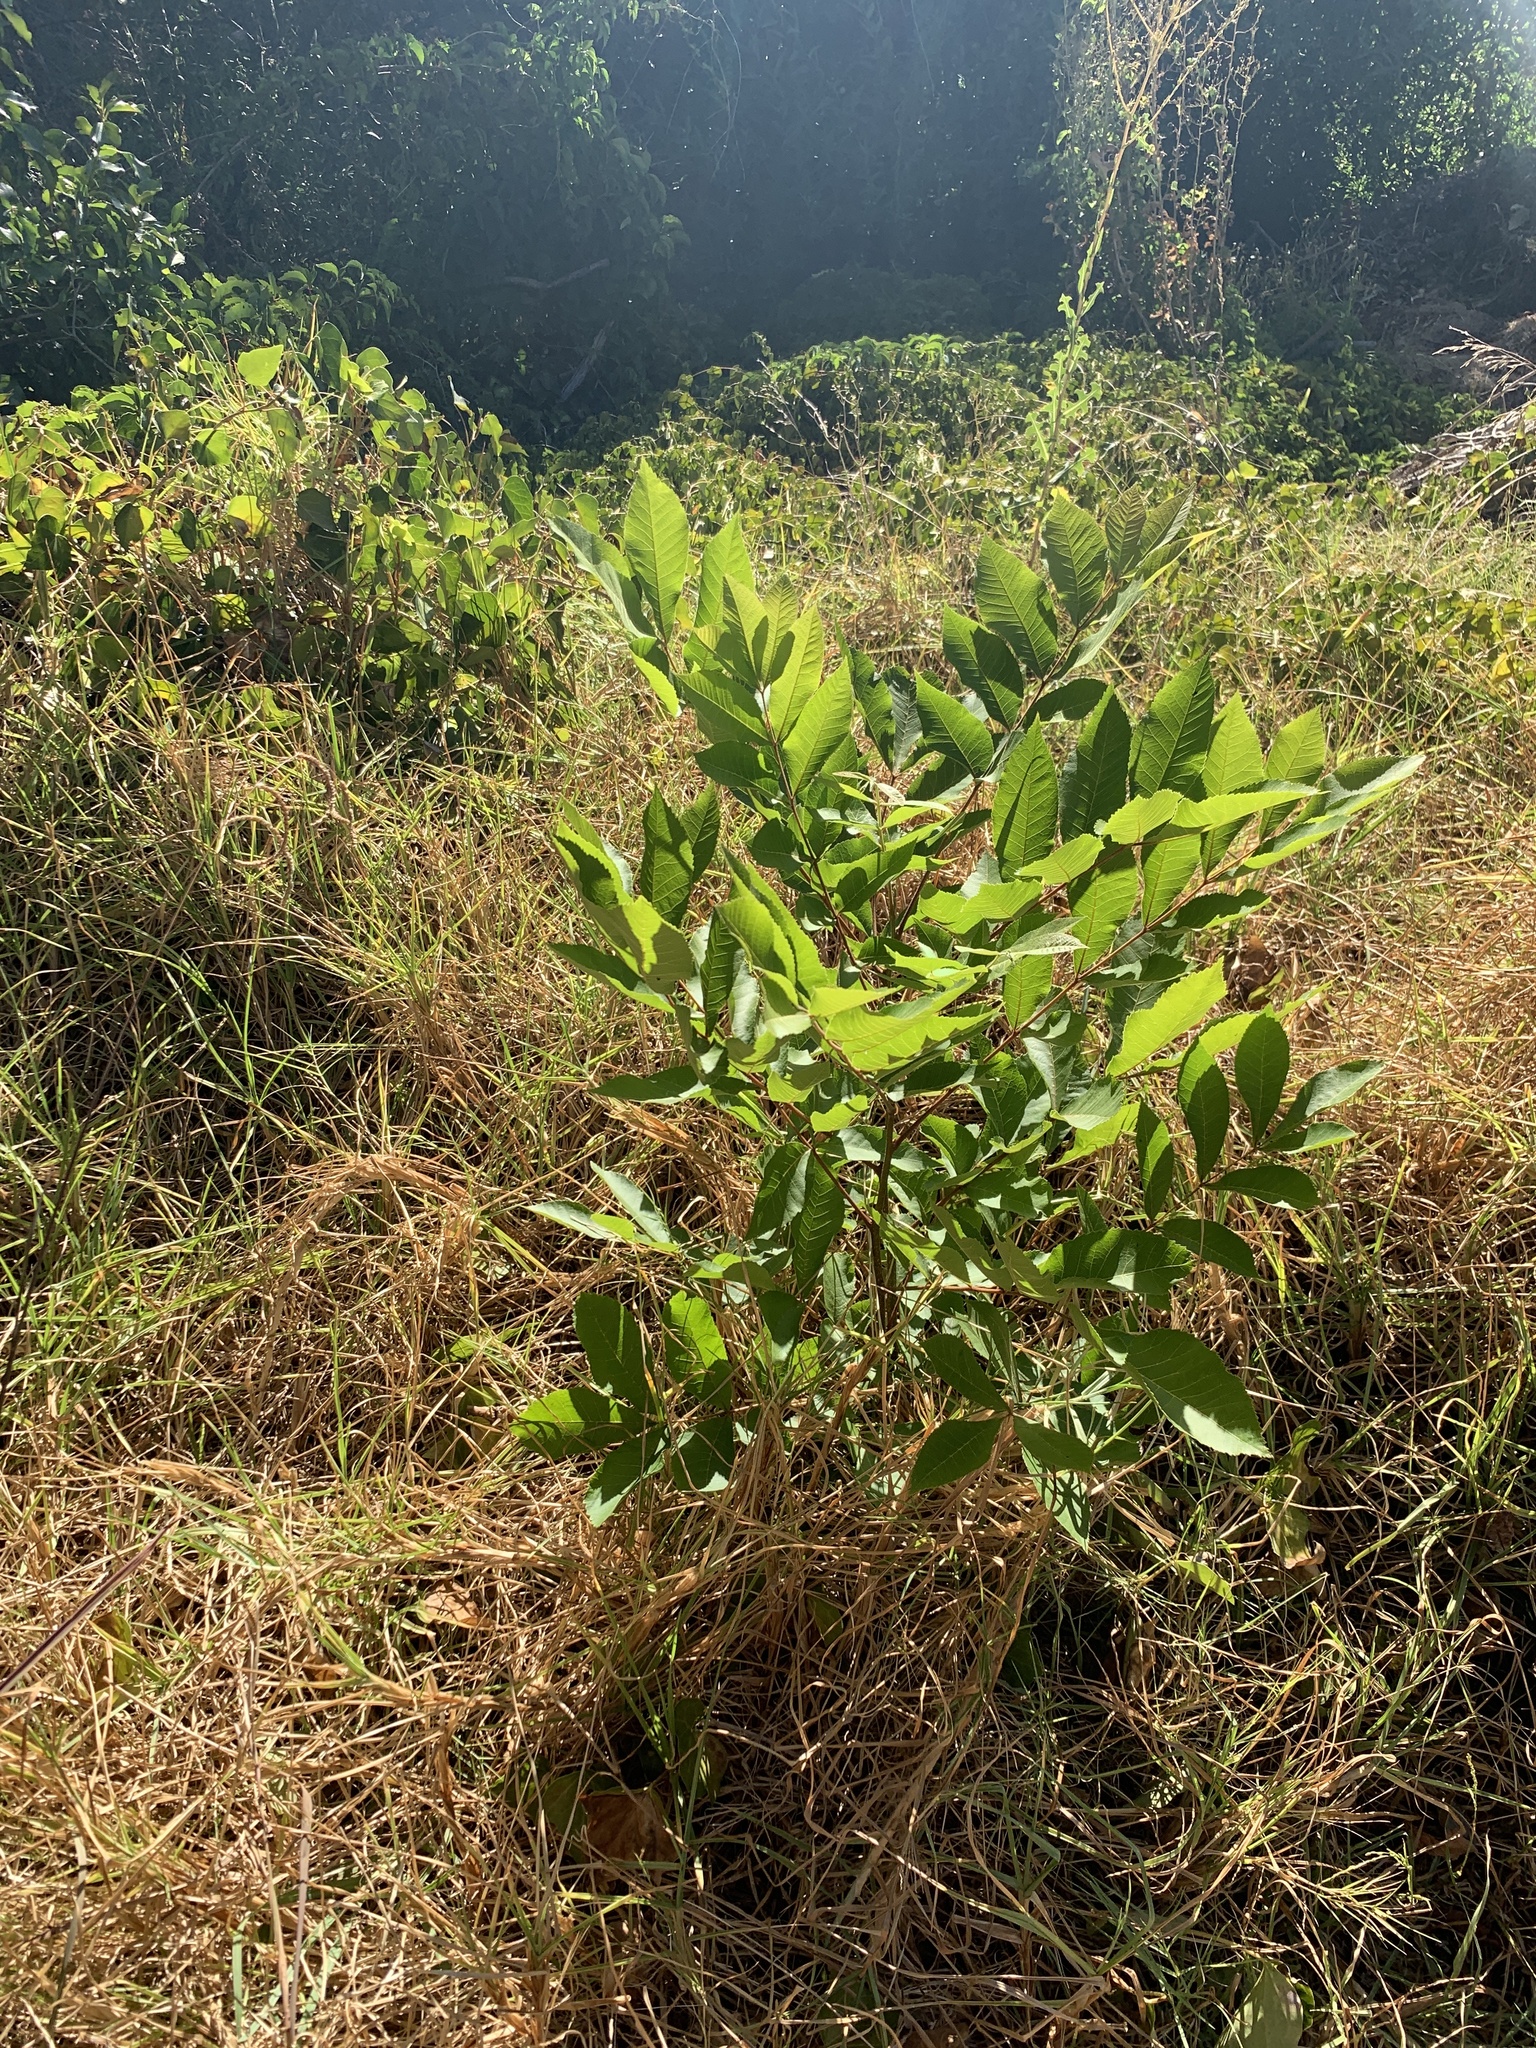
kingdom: Plantae
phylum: Tracheophyta
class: Magnoliopsida
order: Fagales
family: Juglandaceae
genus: Carya
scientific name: Carya illinoinensis
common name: Pecan
